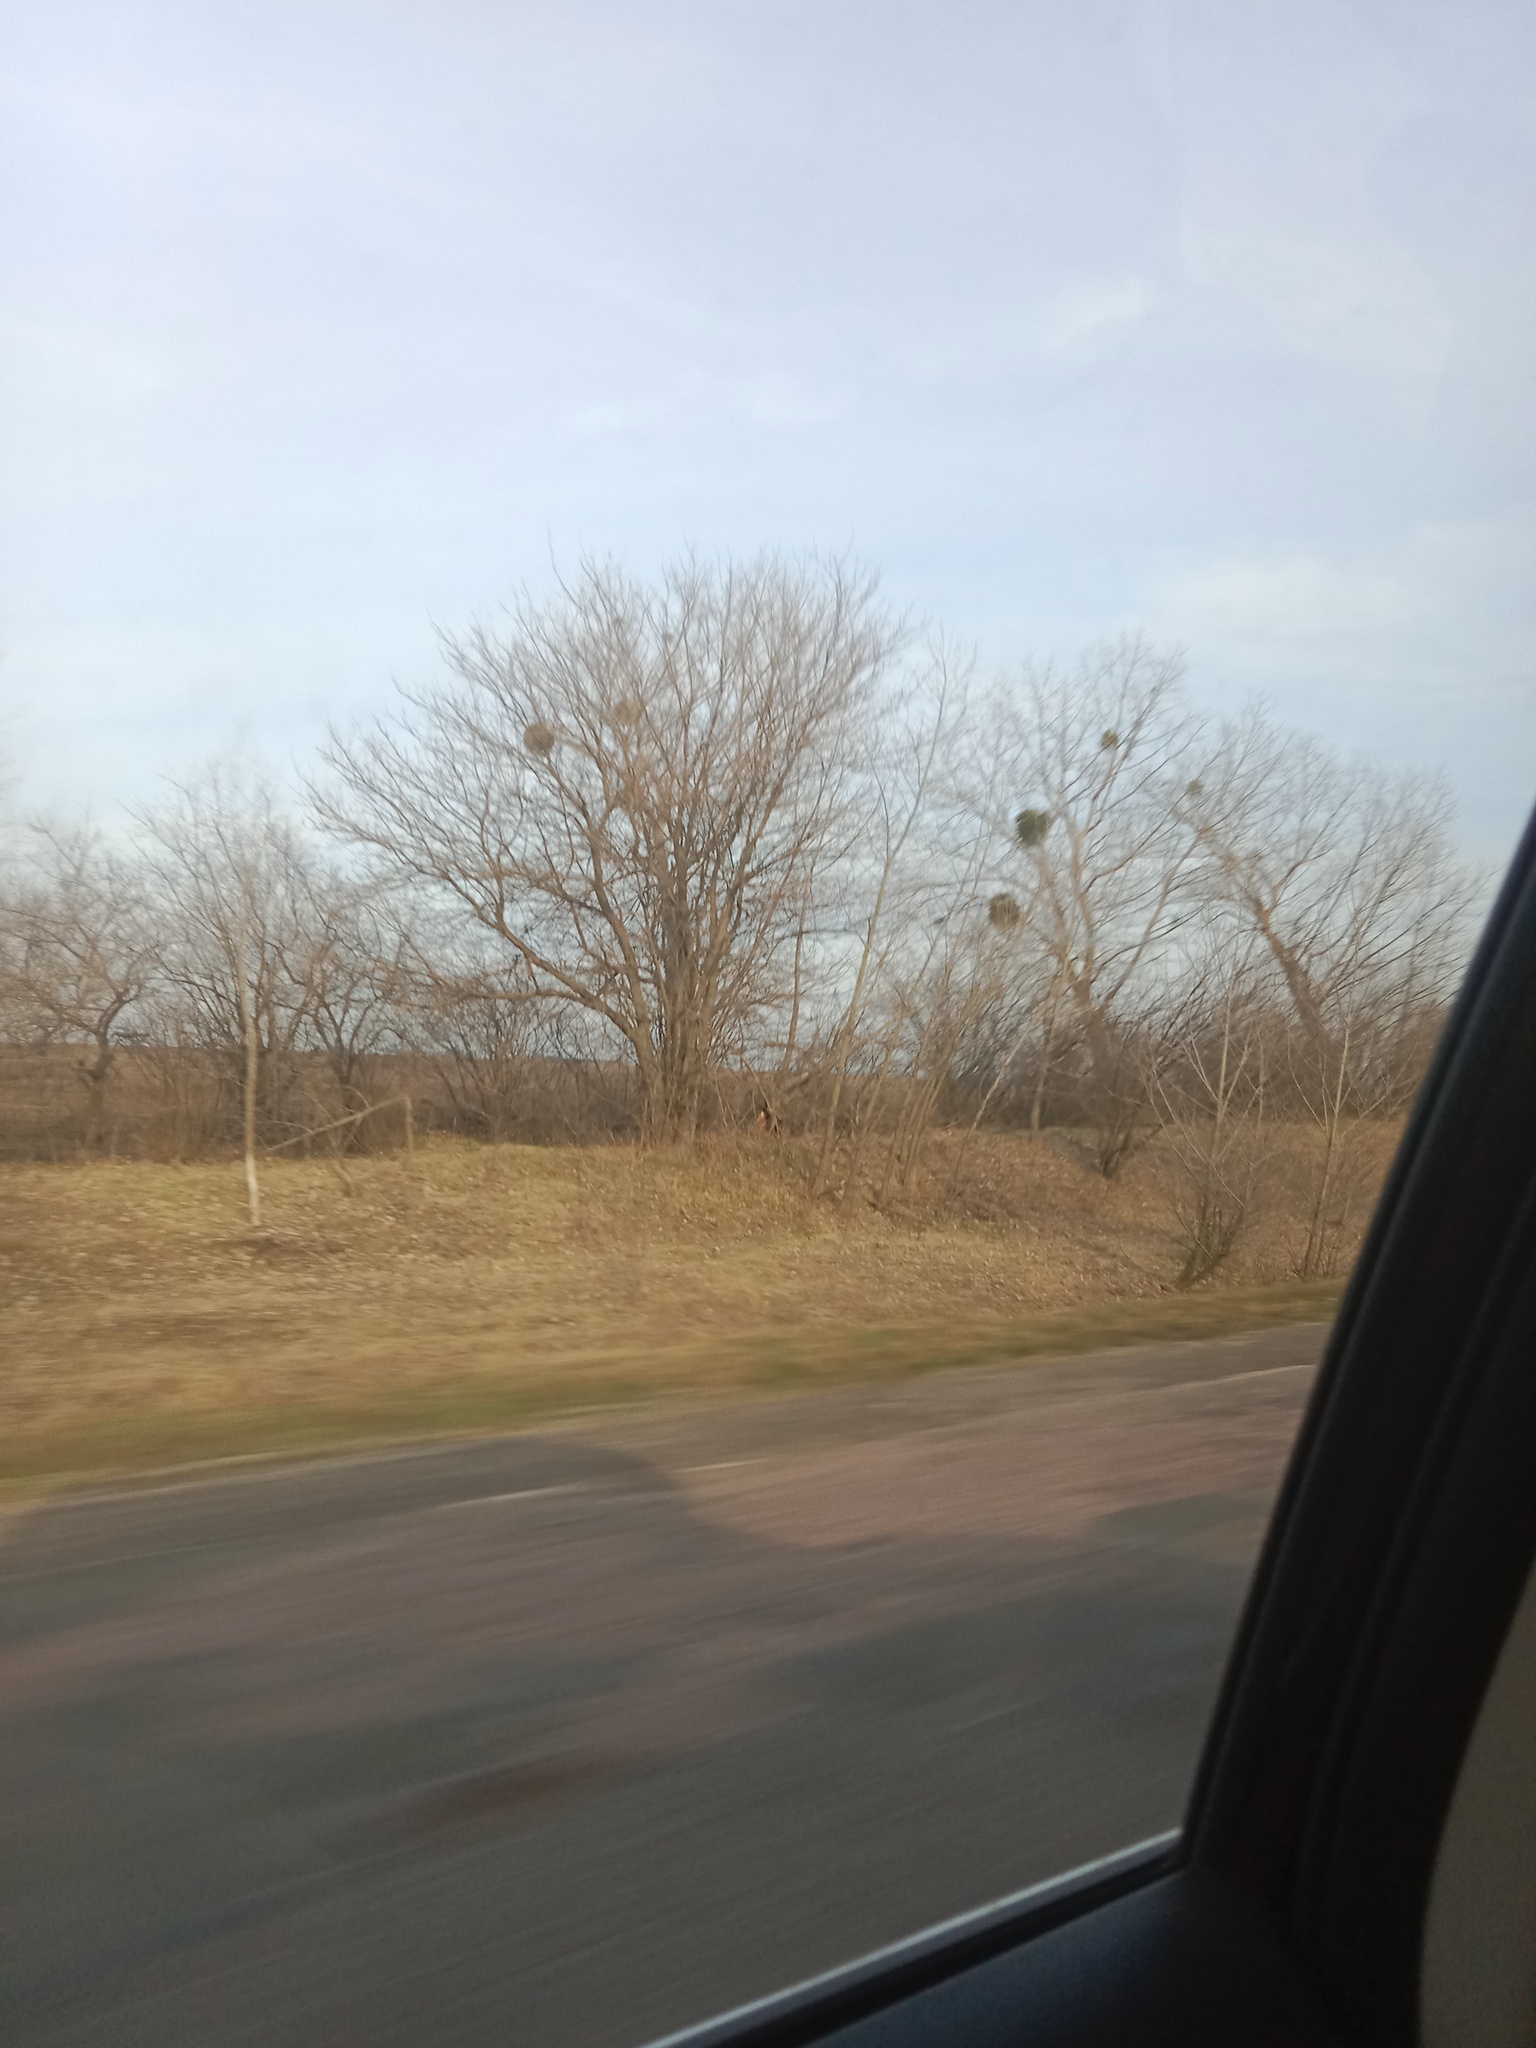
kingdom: Plantae
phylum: Tracheophyta
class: Magnoliopsida
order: Santalales
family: Viscaceae
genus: Viscum
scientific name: Viscum album
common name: Mistletoe
